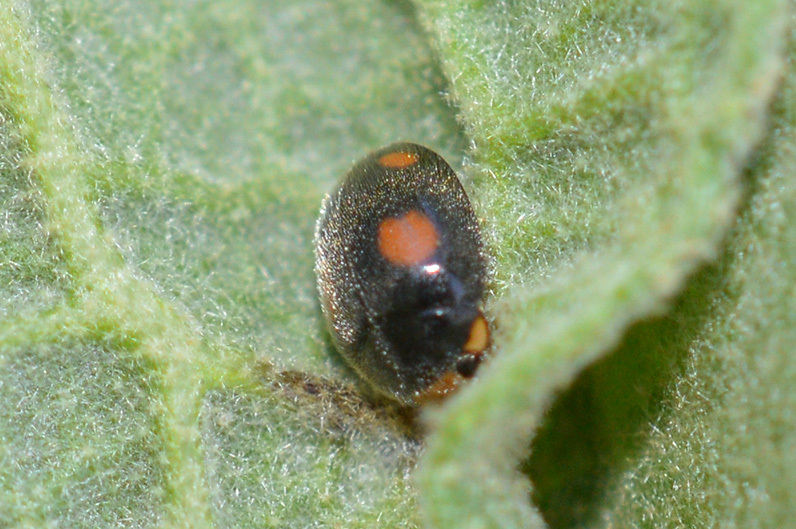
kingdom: Animalia
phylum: Arthropoda
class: Insecta
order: Coleoptera
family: Coccinellidae
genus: Platynaspis
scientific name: Platynaspis luteorubra
